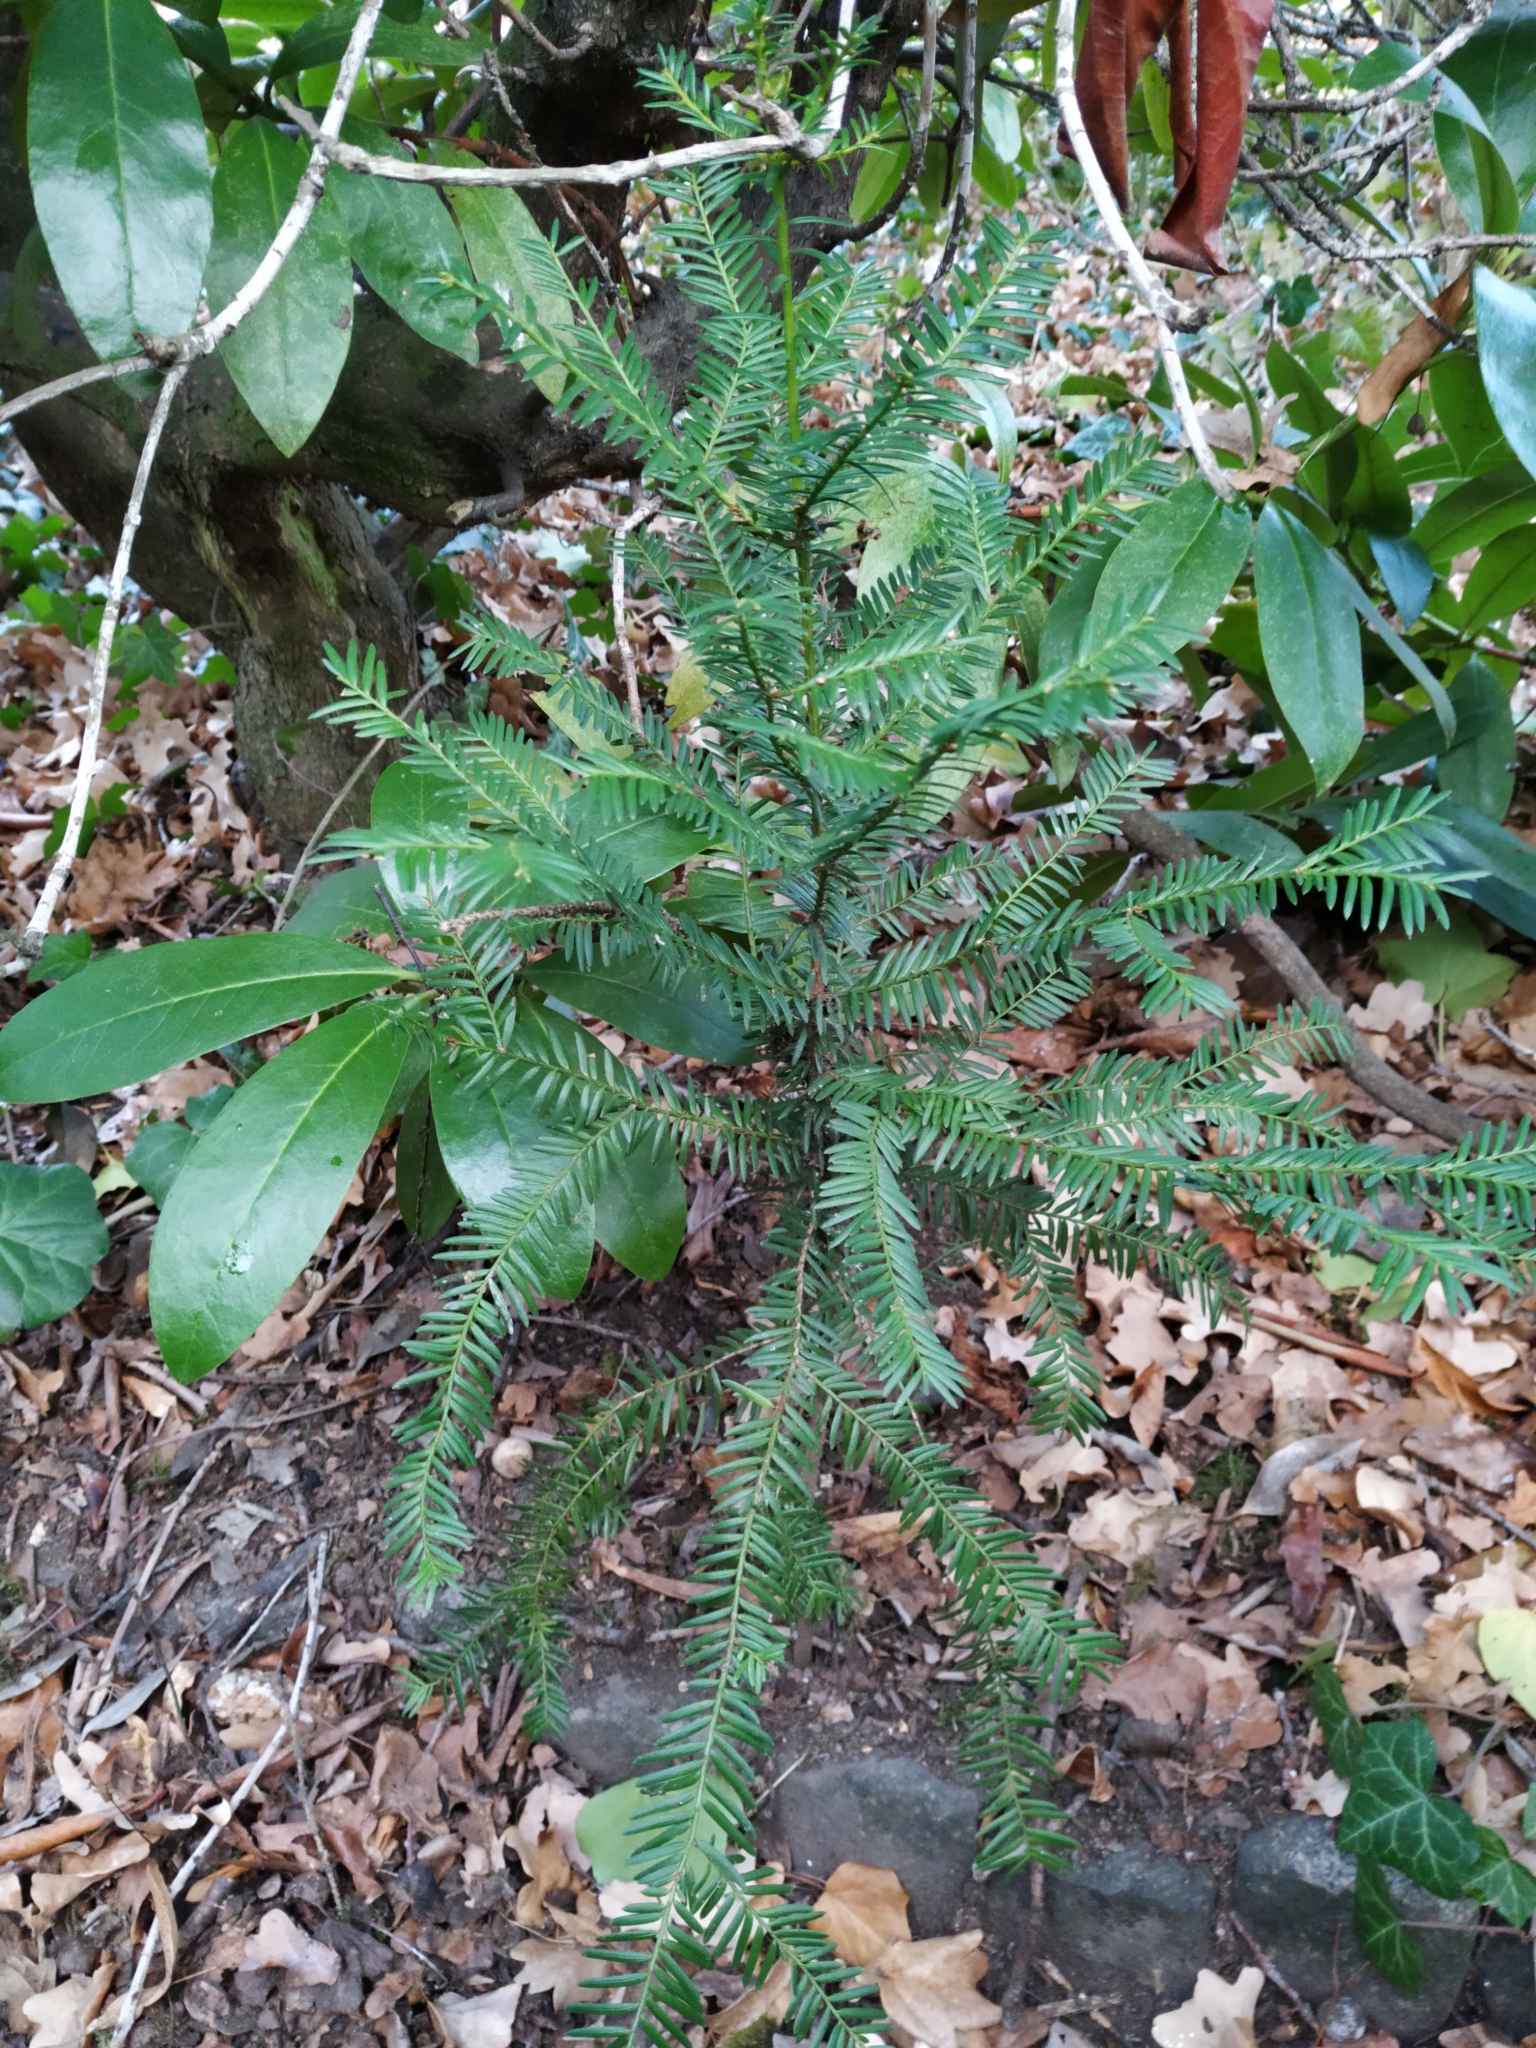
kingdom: Plantae
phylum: Tracheophyta
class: Pinopsida
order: Pinales
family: Taxaceae
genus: Taxus
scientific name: Taxus baccata
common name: Yew
